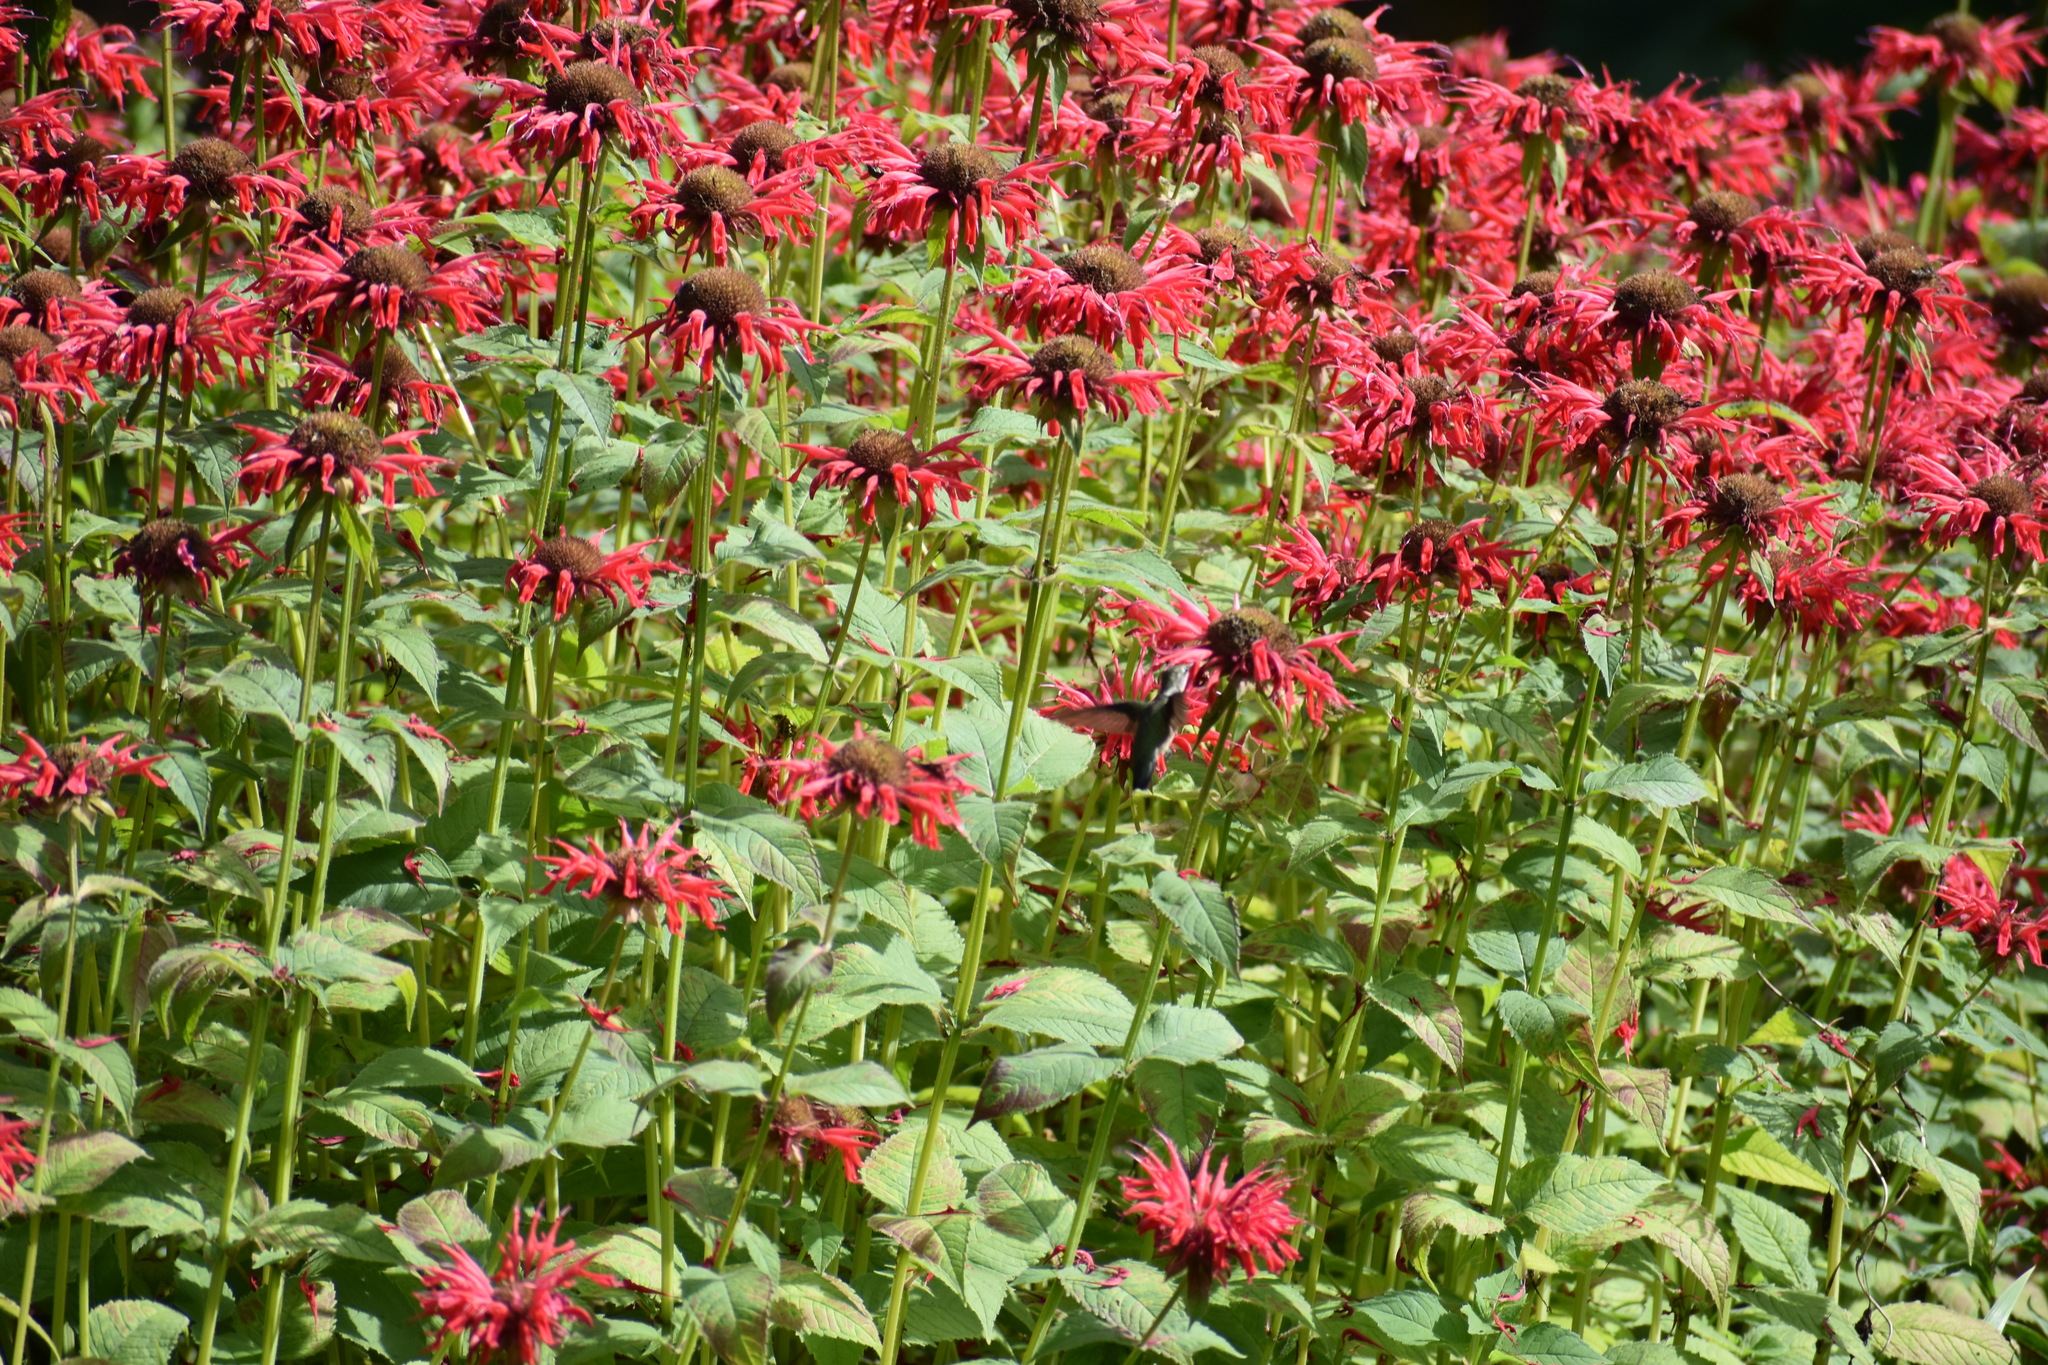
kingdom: Animalia
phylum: Chordata
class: Aves
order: Apodiformes
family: Trochilidae
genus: Archilochus
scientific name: Archilochus colubris
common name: Ruby-throated hummingbird
